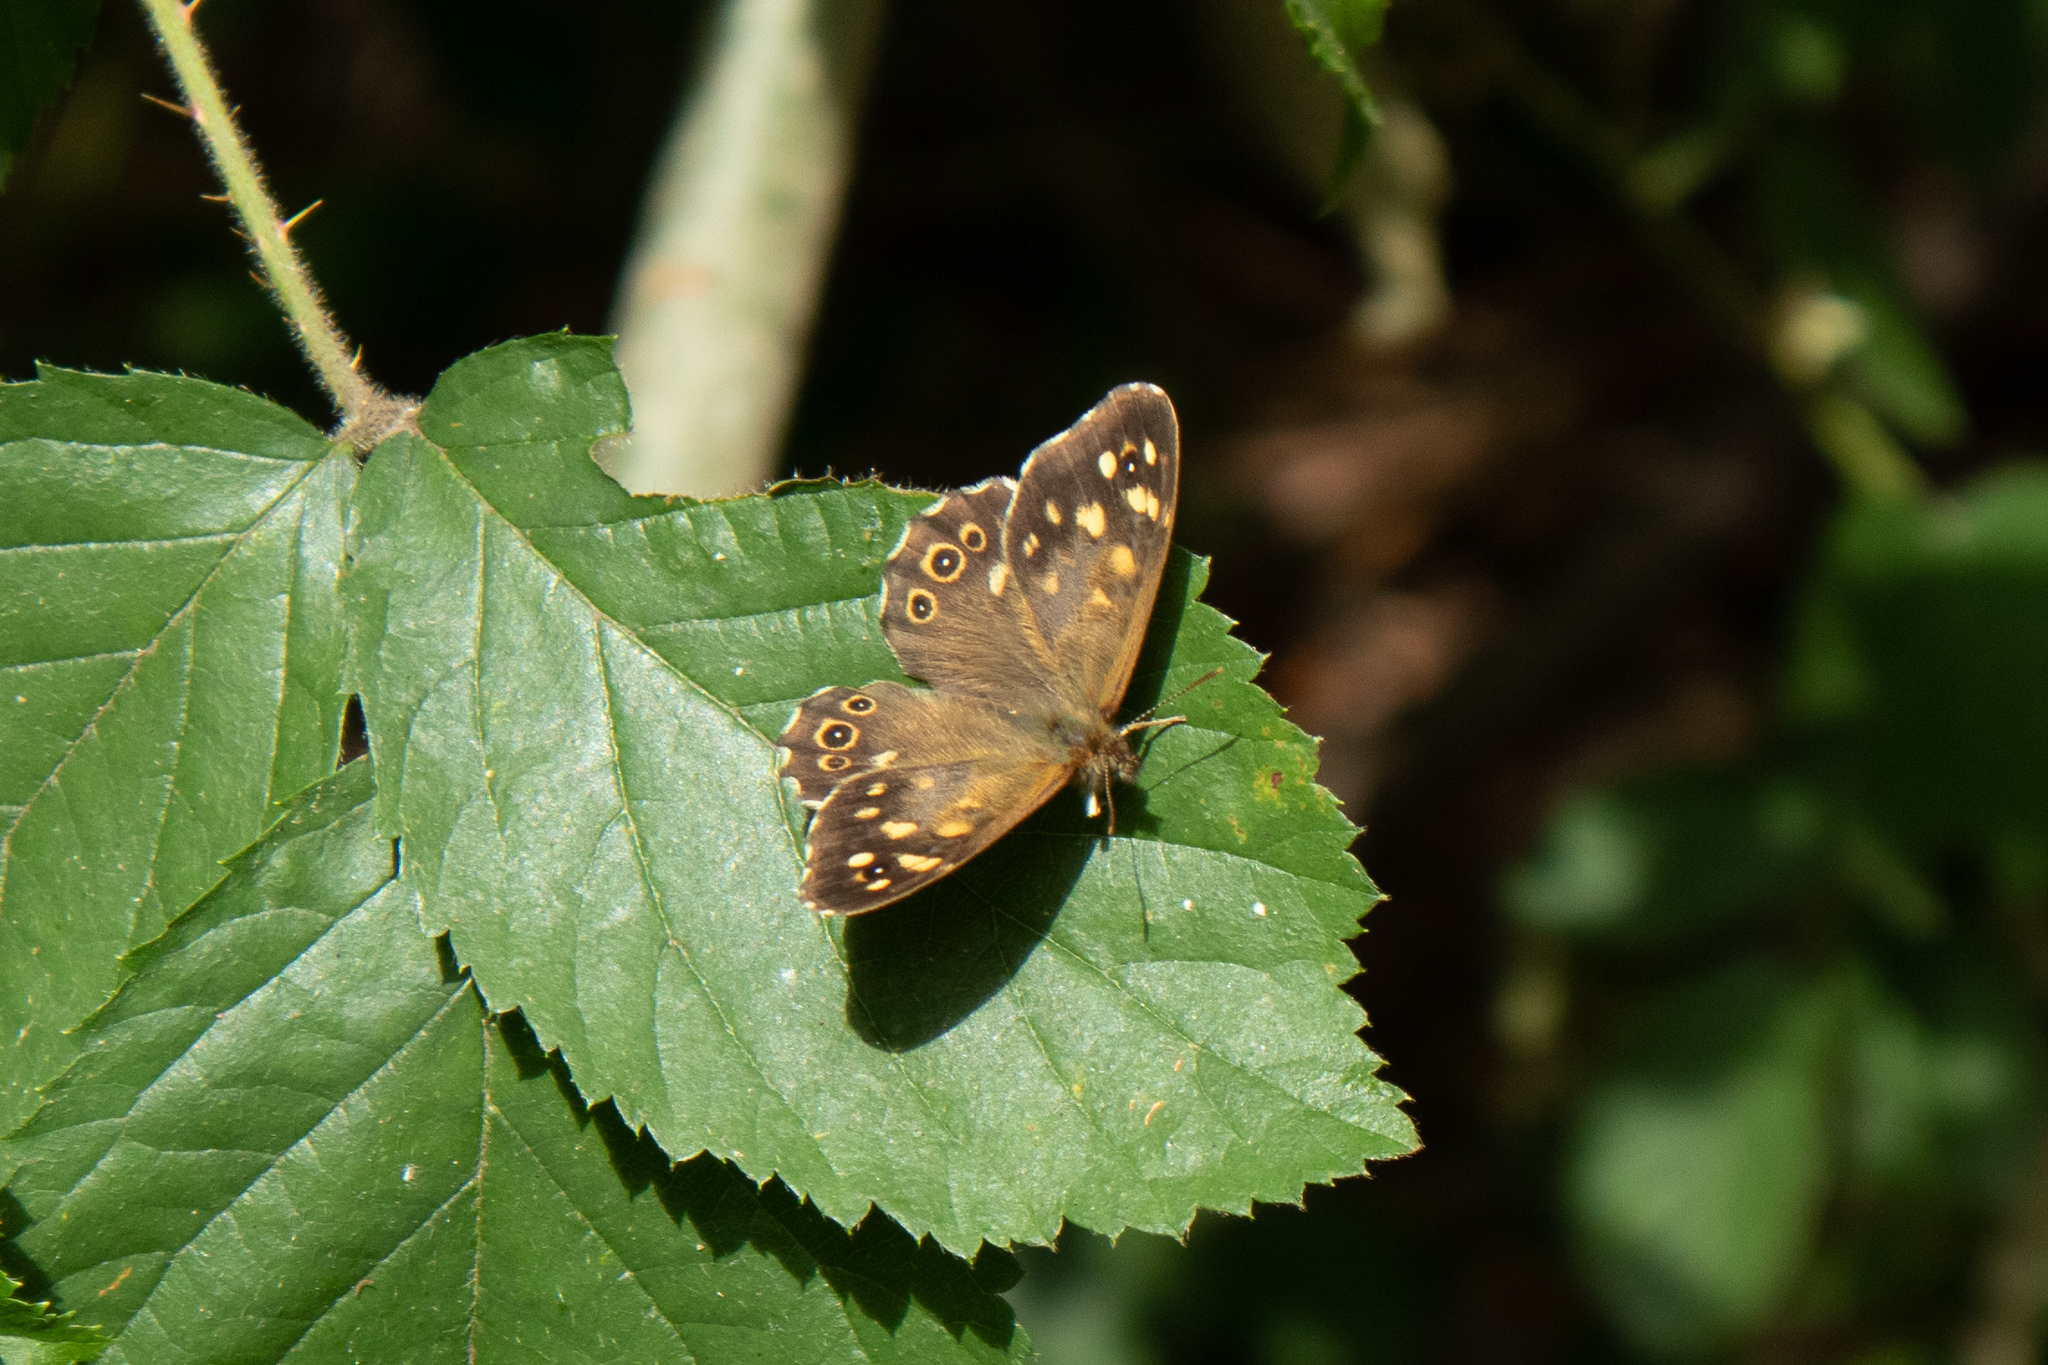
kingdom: Animalia
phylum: Arthropoda
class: Insecta
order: Lepidoptera
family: Nymphalidae
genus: Pararge
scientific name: Pararge aegeria
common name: Speckled wood
